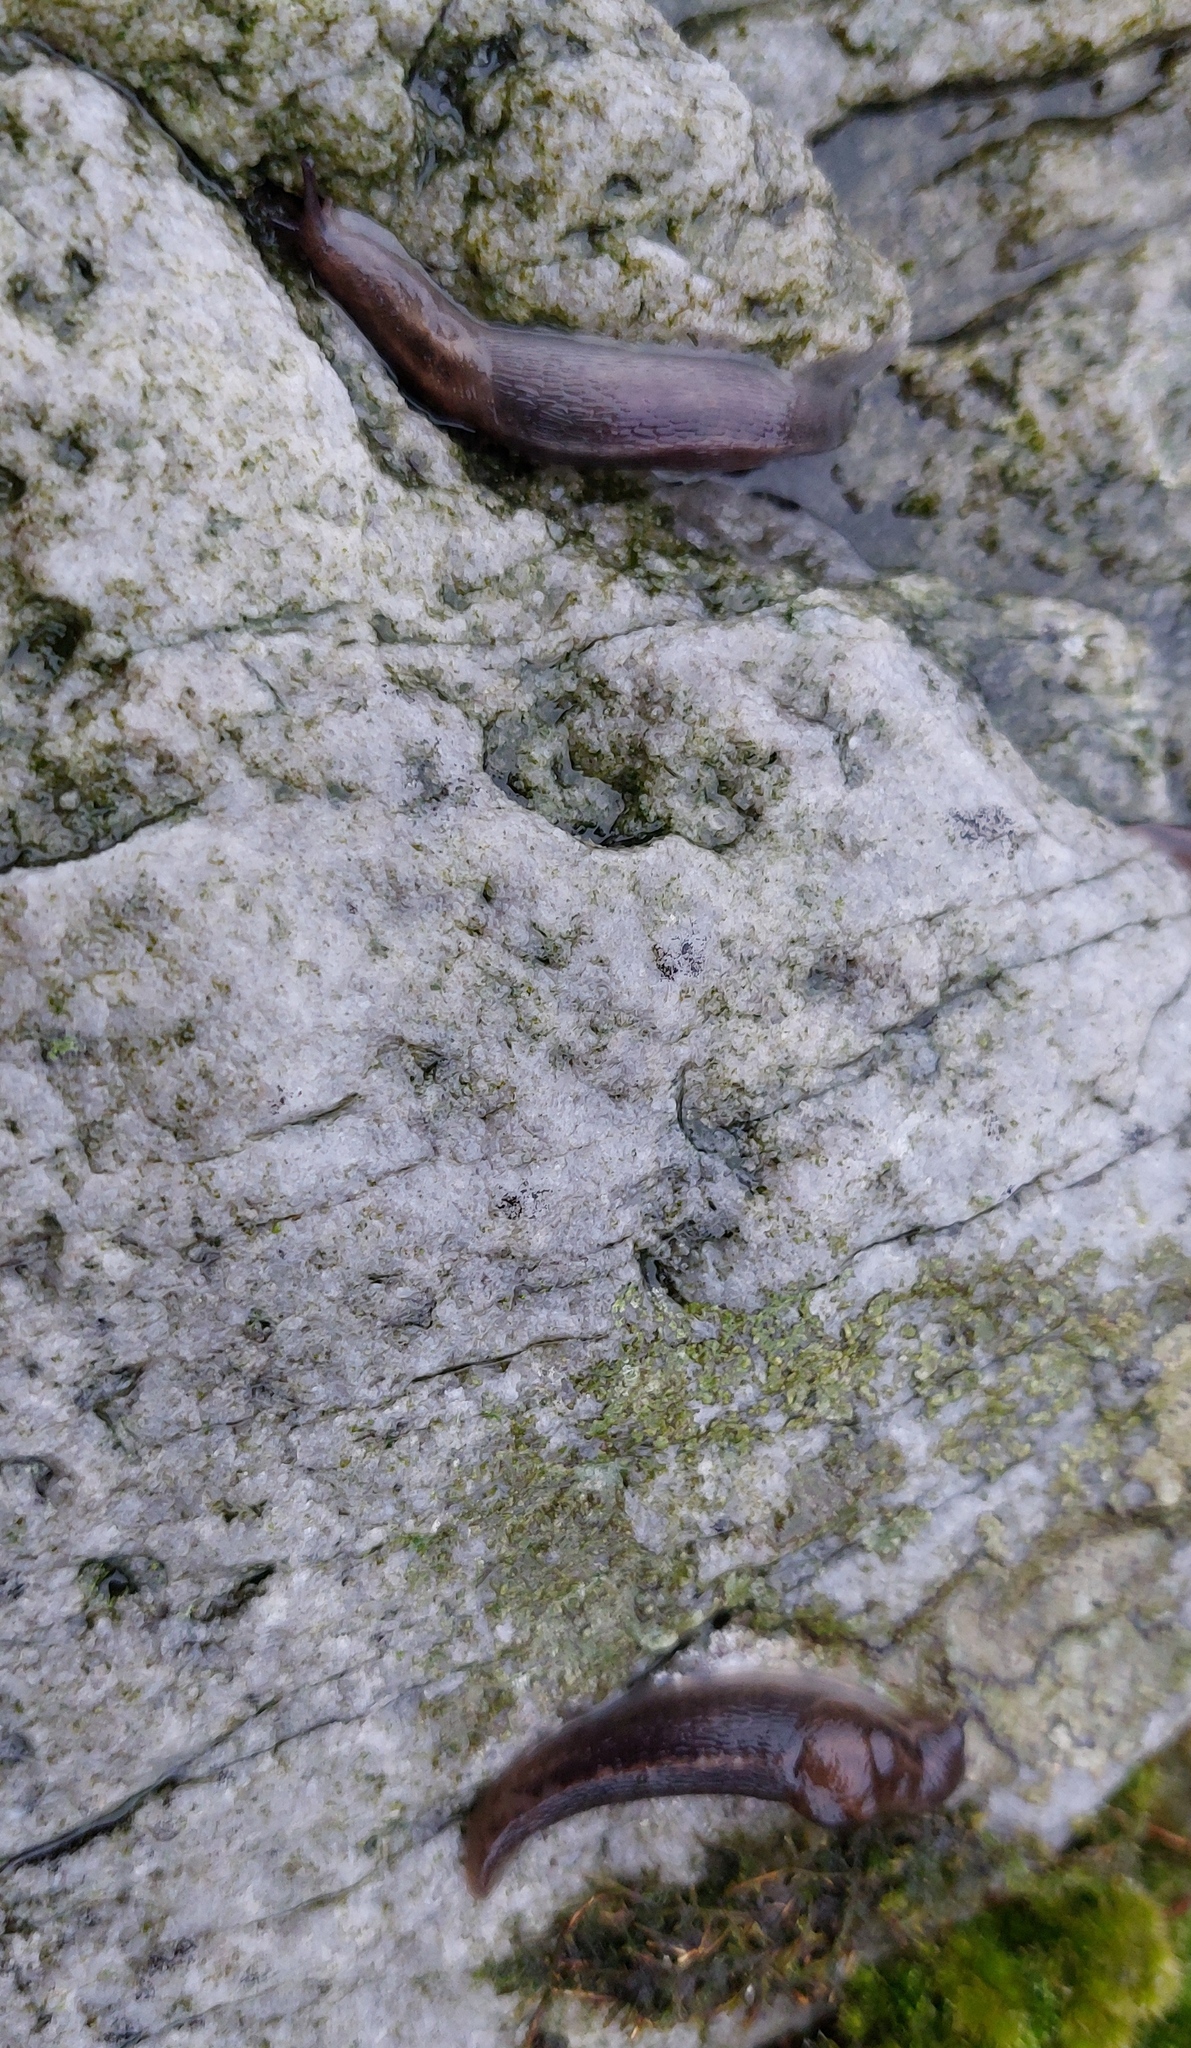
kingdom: Animalia
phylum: Mollusca
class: Gastropoda
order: Stylommatophora
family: Limacidae
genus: Lehmannia
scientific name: Lehmannia marginata
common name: Tree slug
